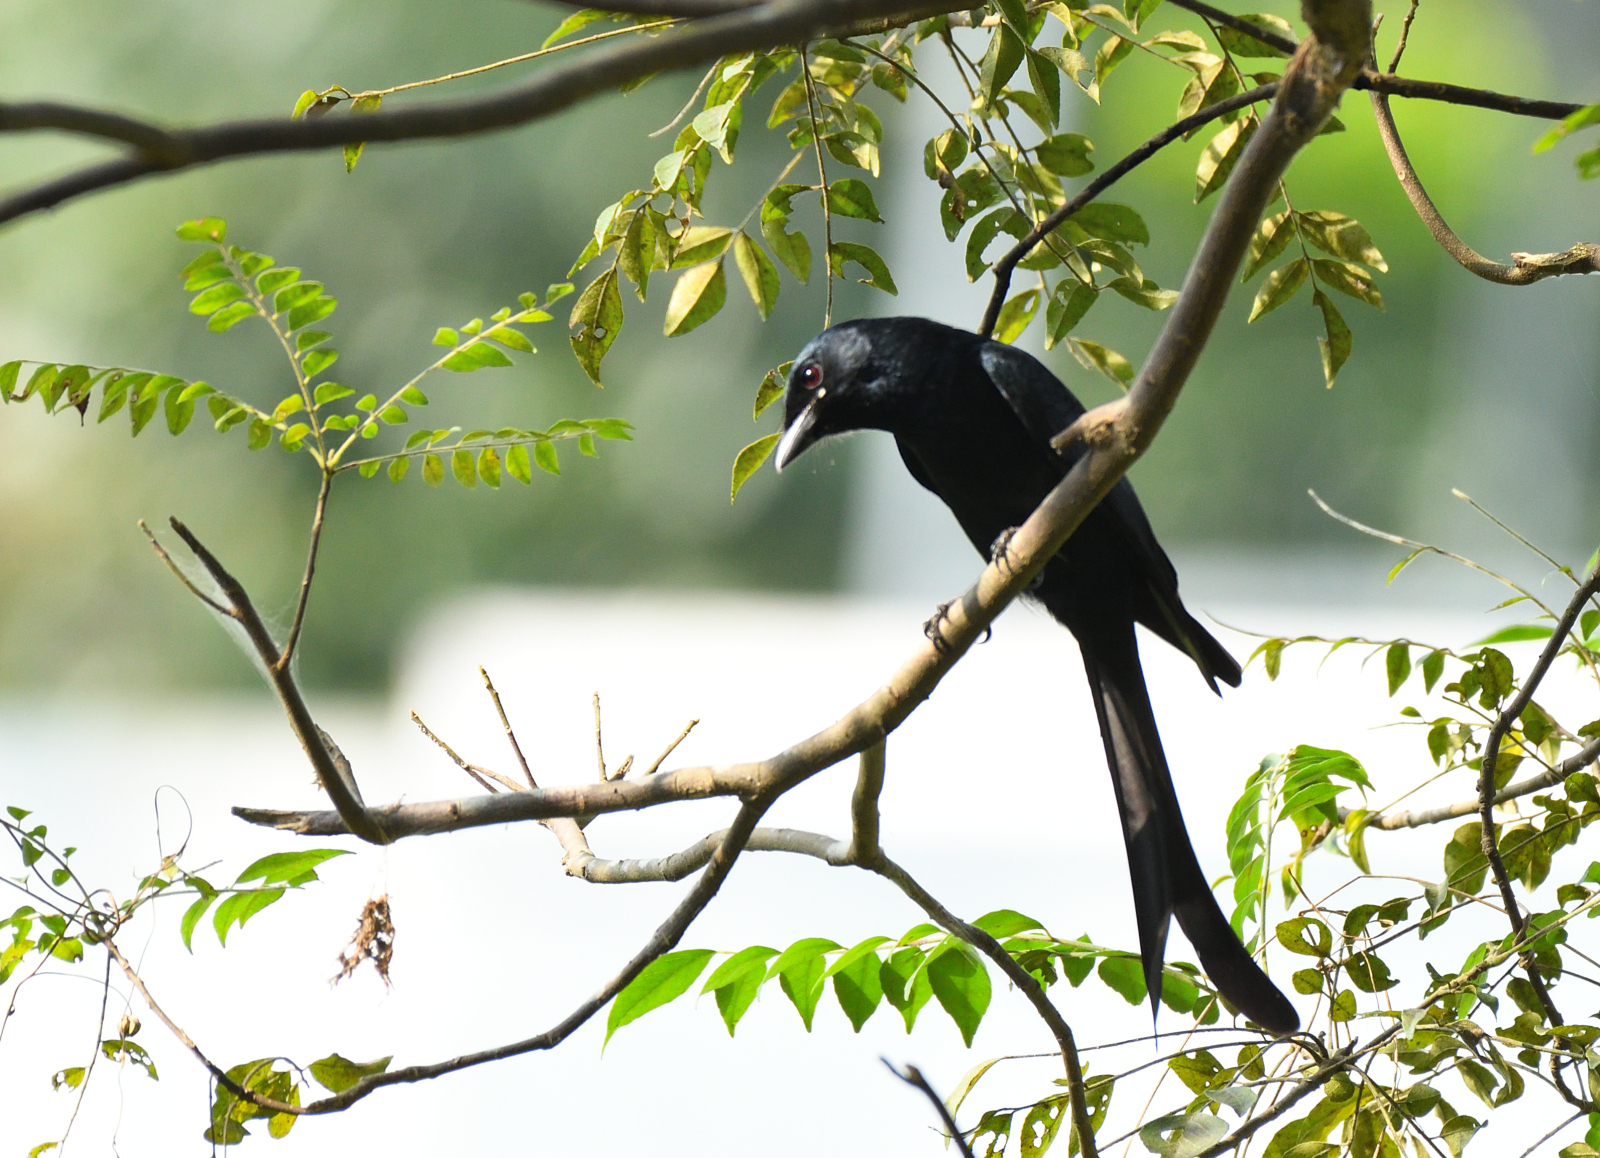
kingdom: Animalia
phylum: Chordata
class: Aves
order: Passeriformes
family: Dicruridae
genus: Dicrurus
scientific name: Dicrurus macrocercus
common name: Black drongo
